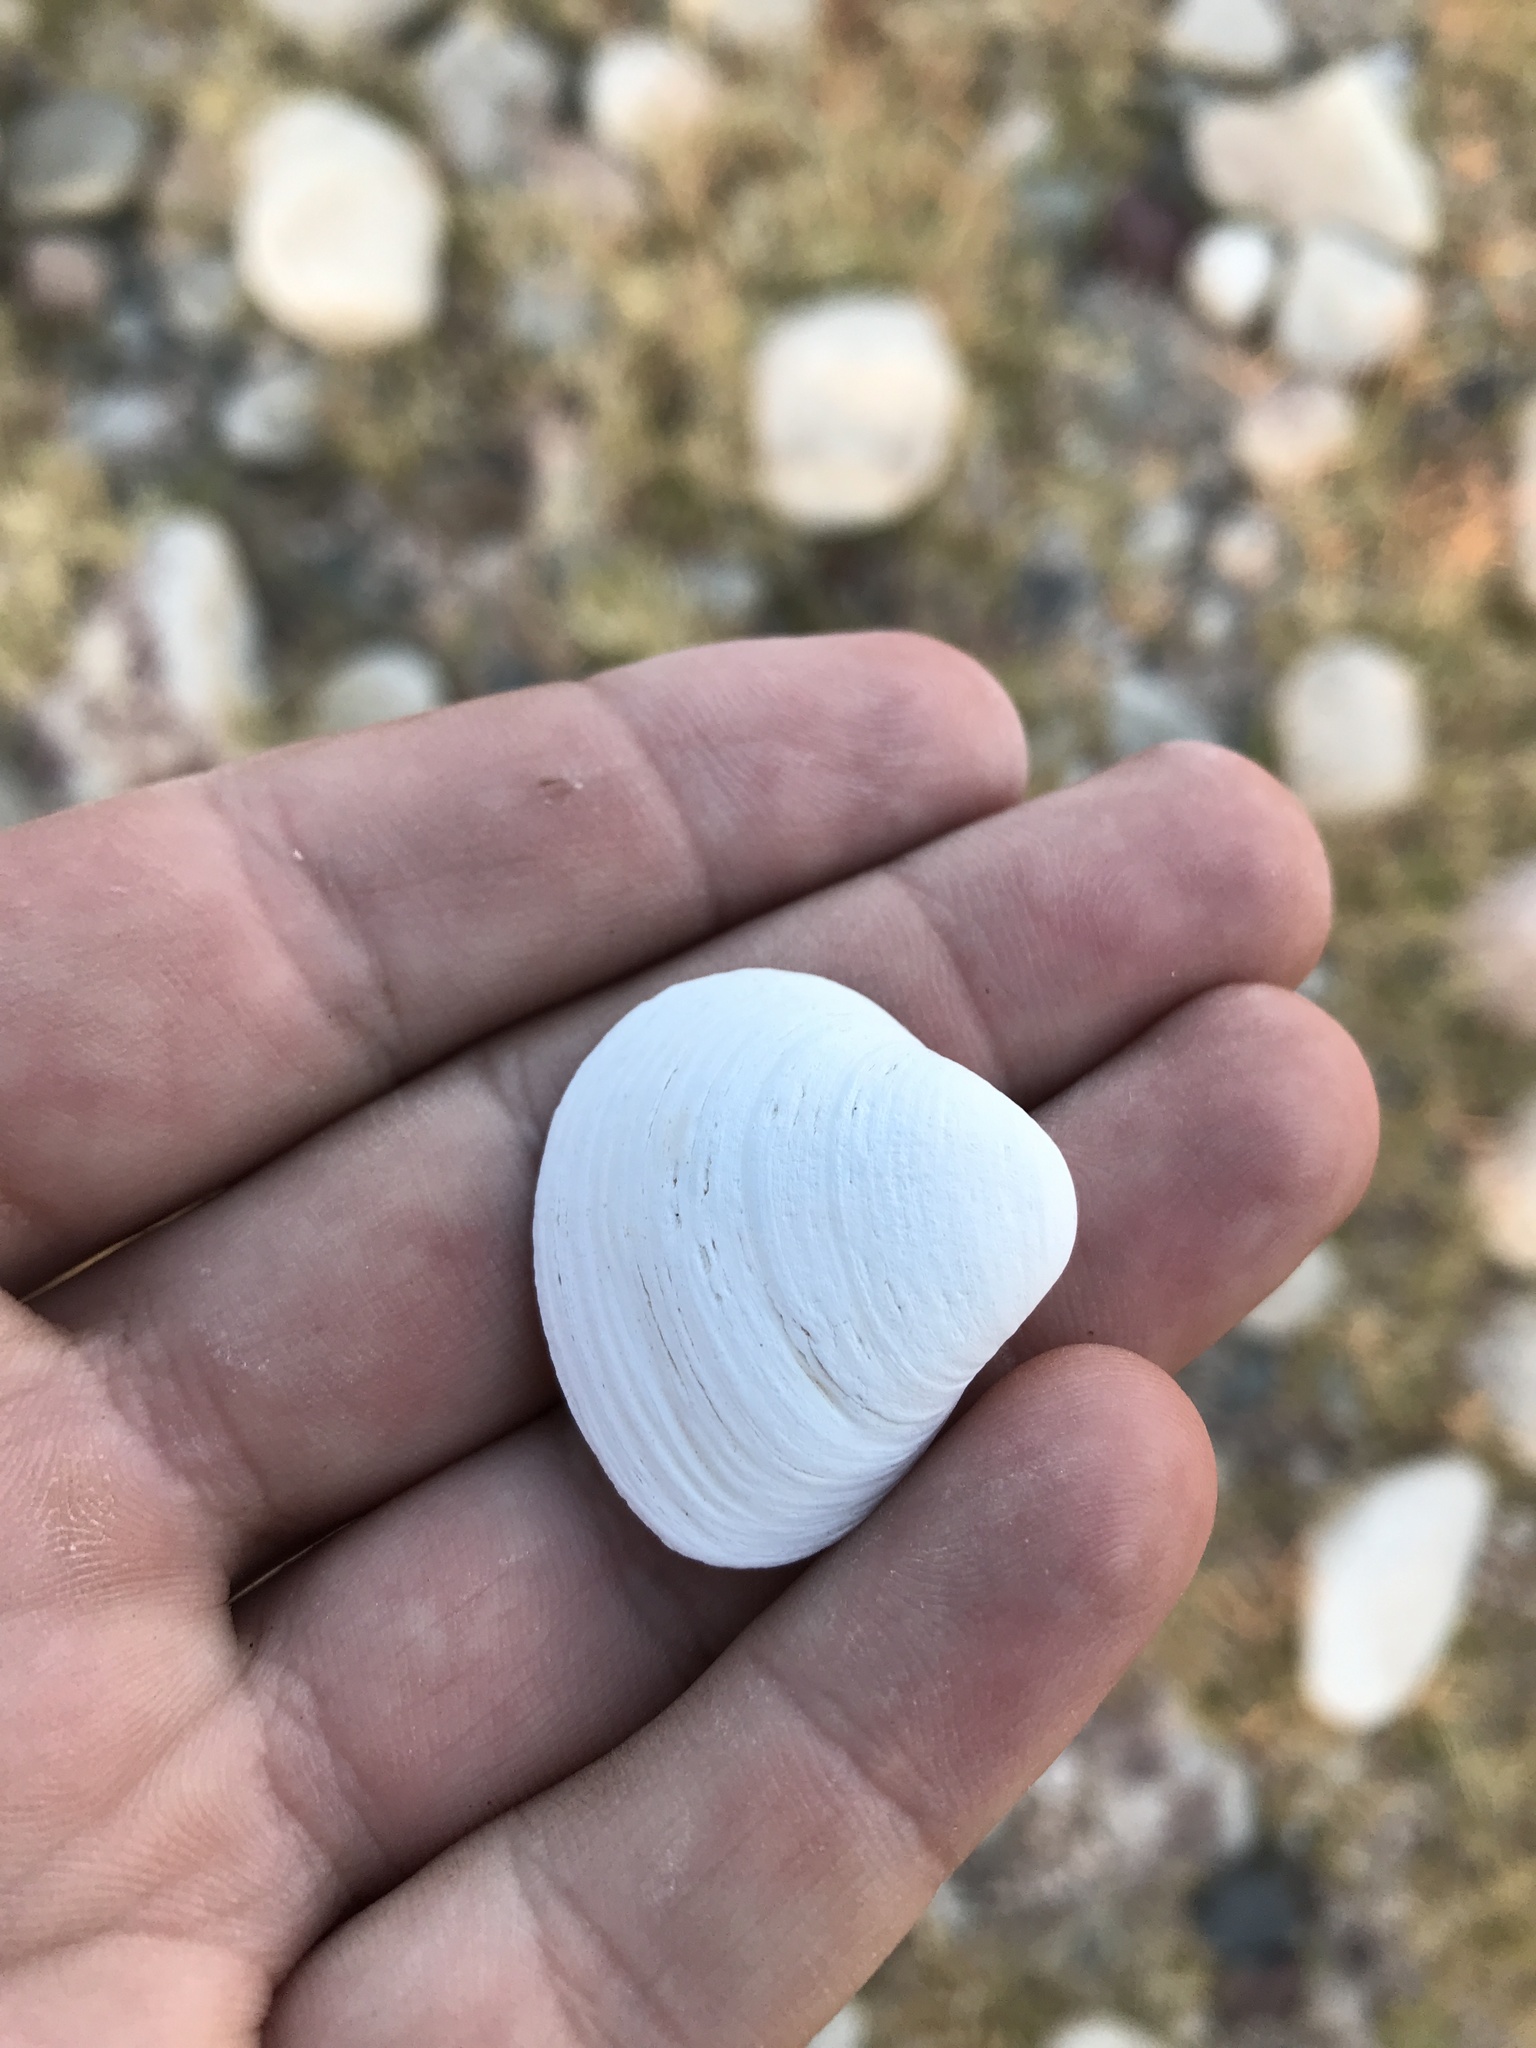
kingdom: Animalia
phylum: Mollusca
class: Bivalvia
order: Venerida
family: Cyrenidae
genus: Corbicula
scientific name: Corbicula fluminea
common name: Asian clam
